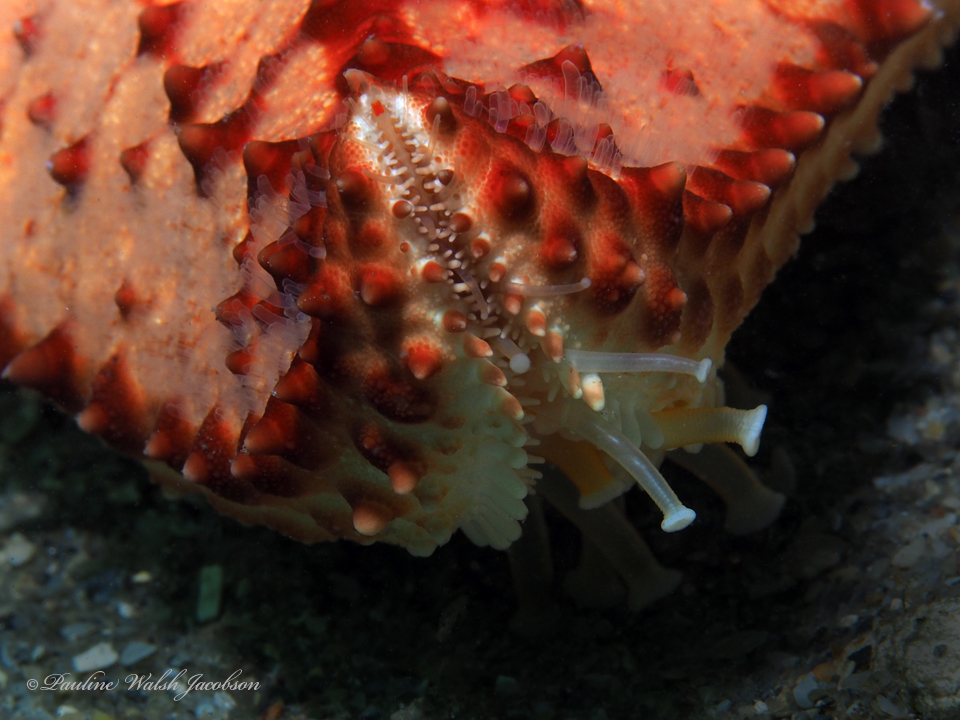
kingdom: Animalia
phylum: Echinodermata
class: Asteroidea
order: Valvatida
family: Oreasteridae
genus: Oreaster
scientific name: Oreaster reticulatus
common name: Cushion sea star
